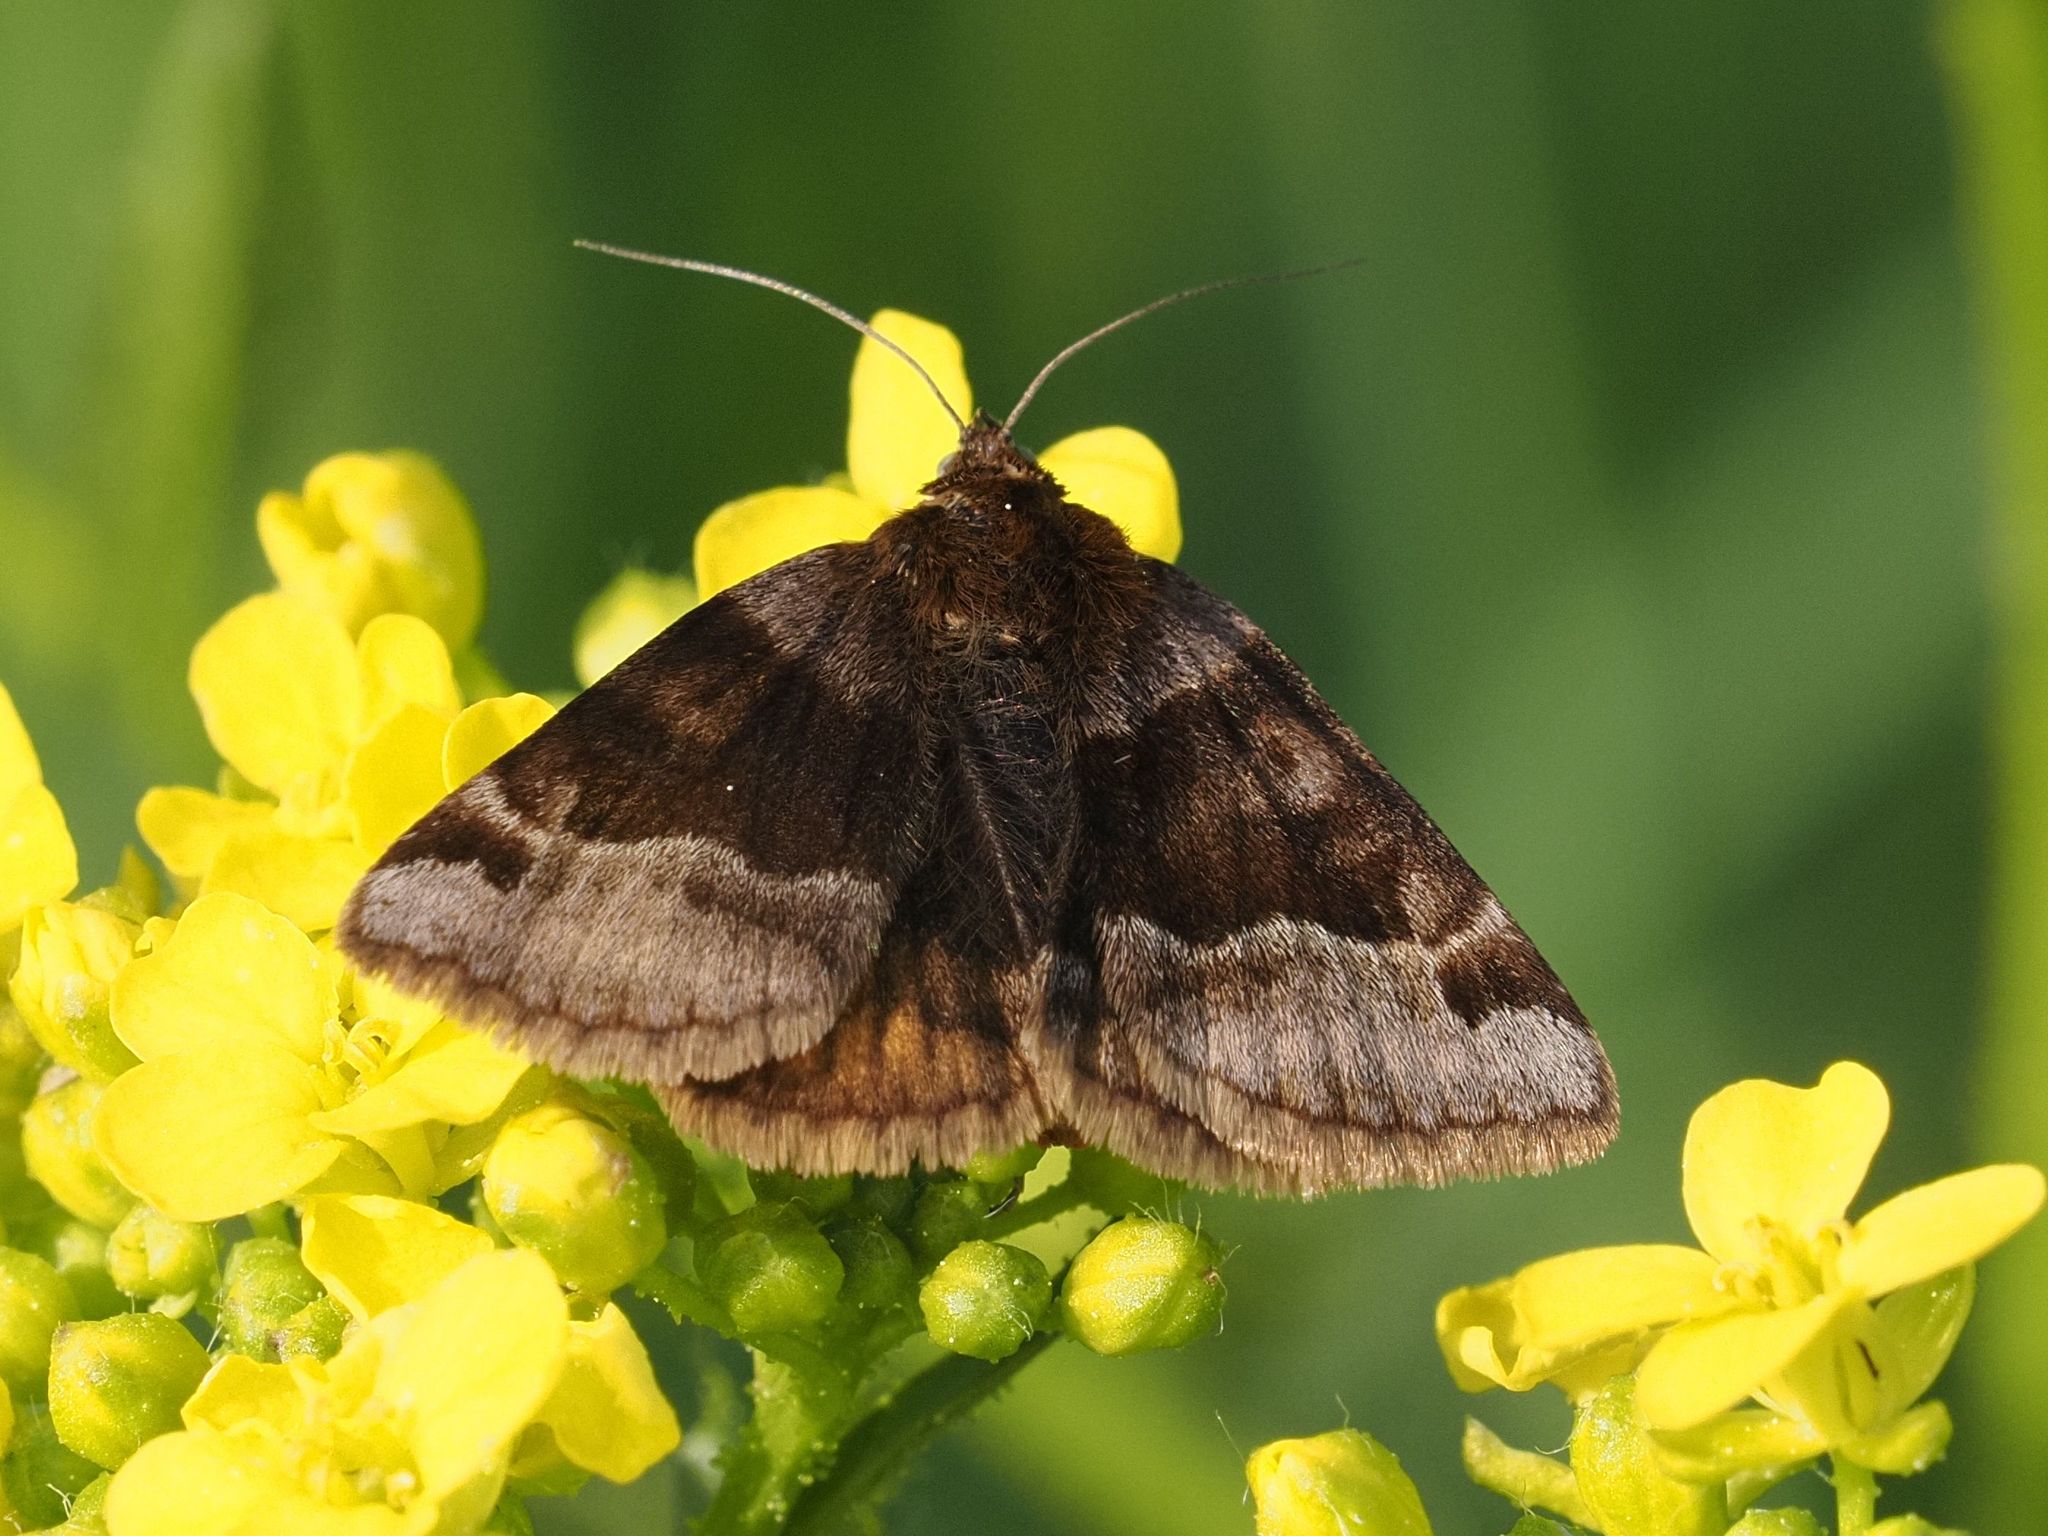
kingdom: Animalia
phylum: Arthropoda
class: Insecta
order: Lepidoptera
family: Erebidae
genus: Euclidia
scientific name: Euclidia glyphica
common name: Burnet companion
